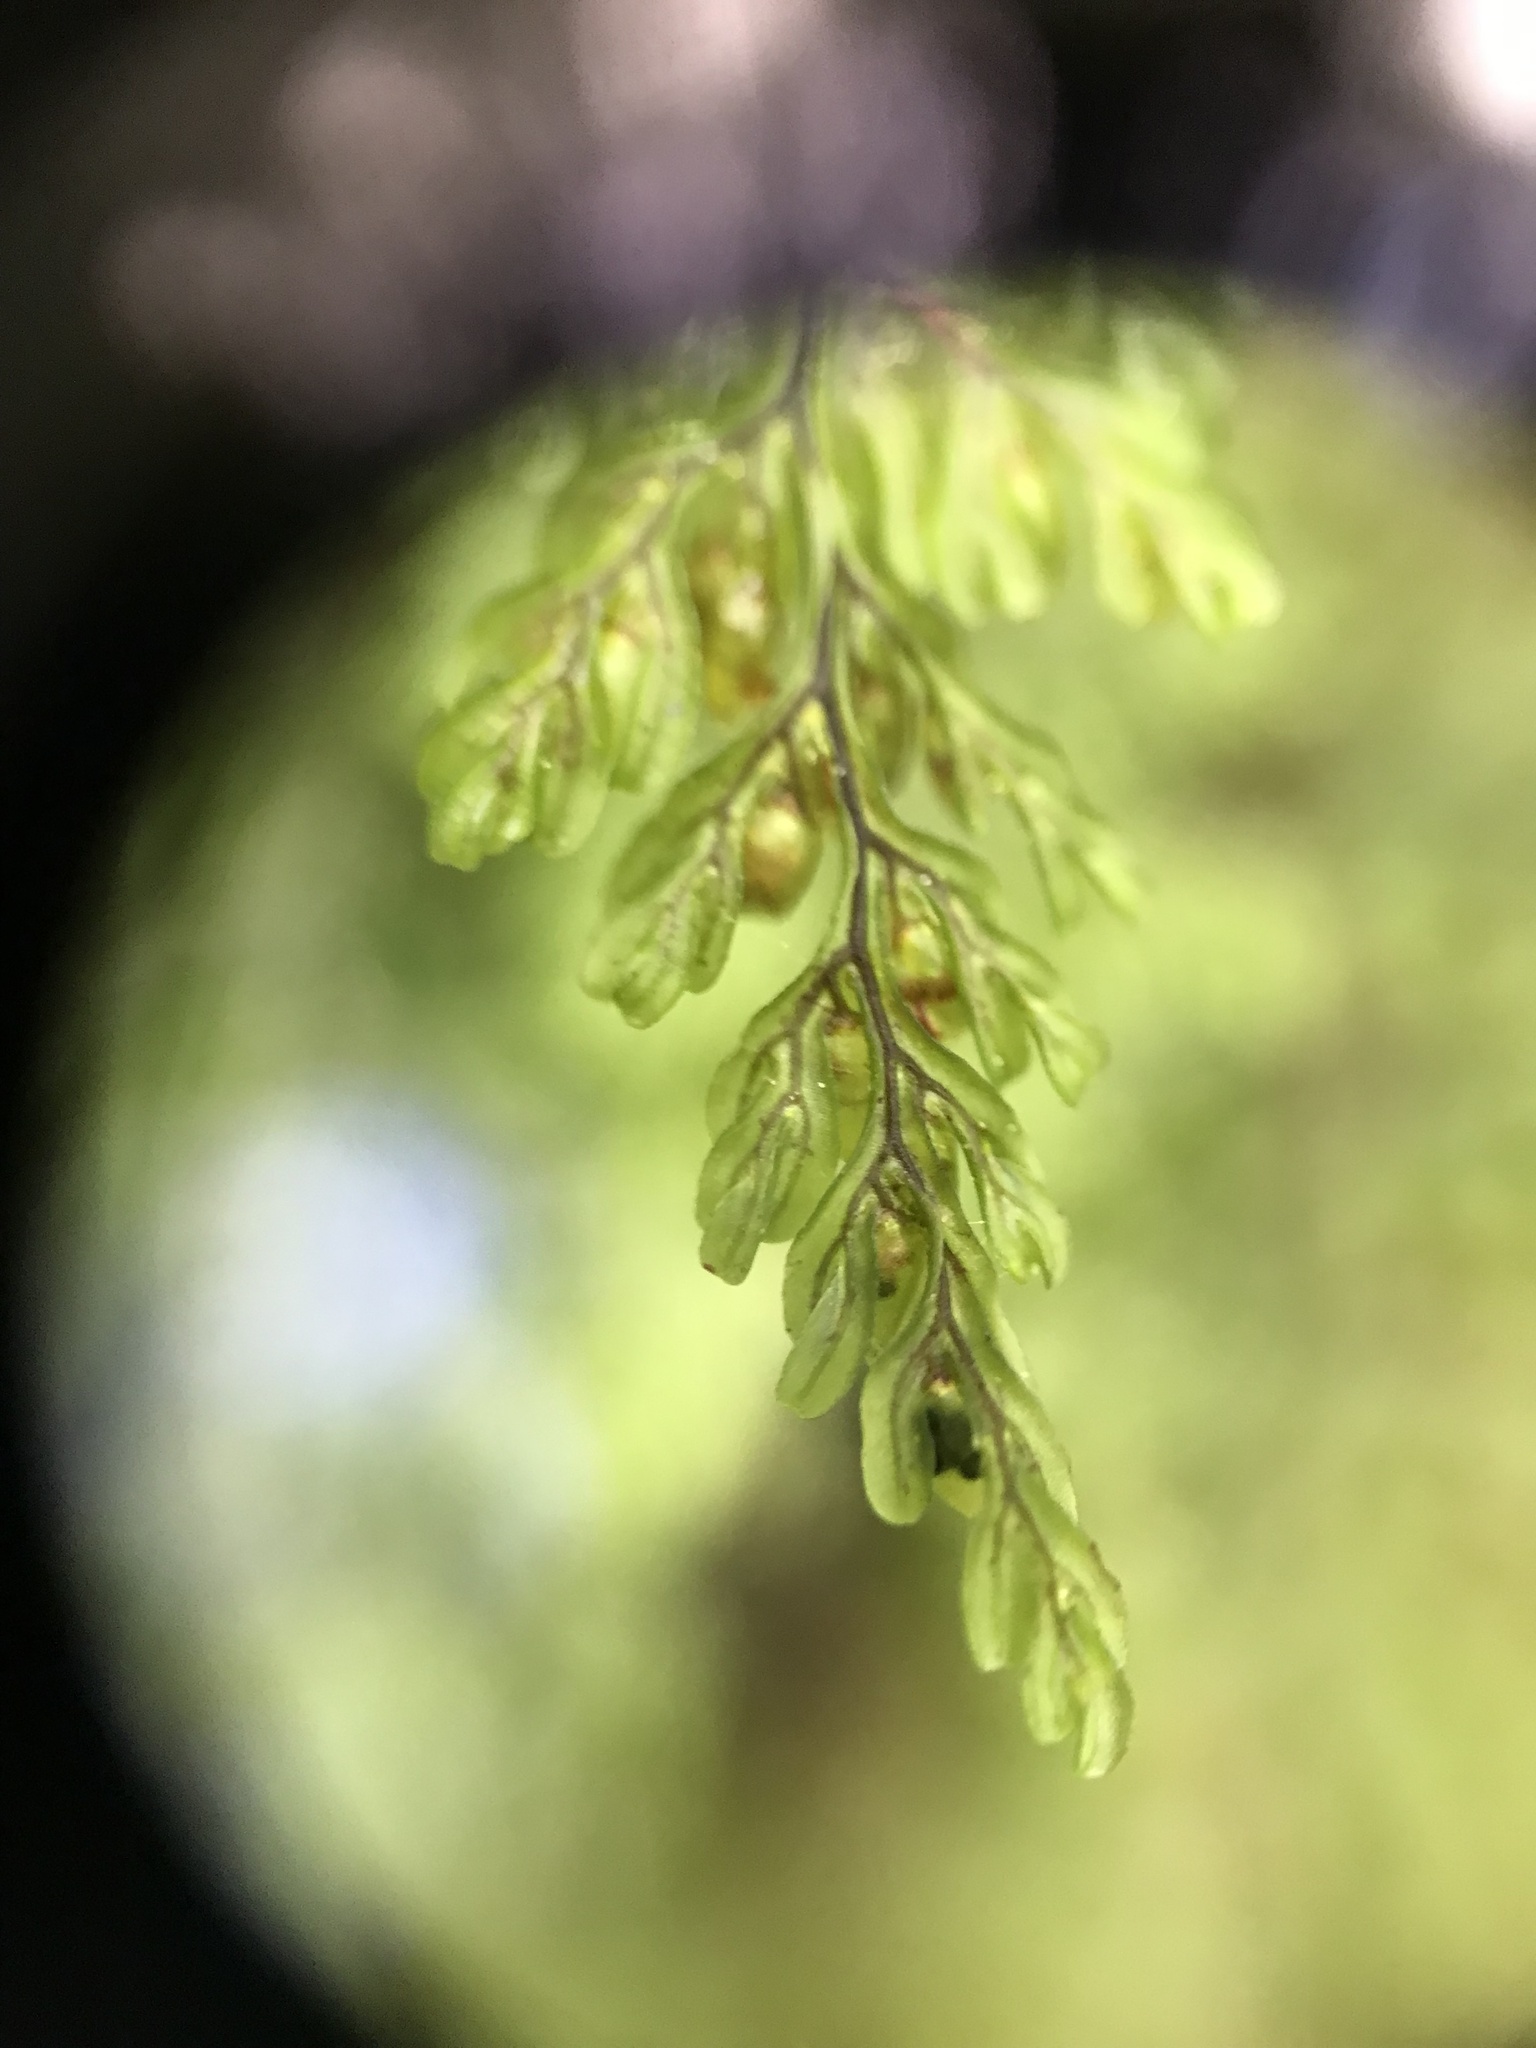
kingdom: Plantae
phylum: Tracheophyta
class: Polypodiopsida
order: Hymenophyllales
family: Hymenophyllaceae
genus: Hymenophyllum
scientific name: Hymenophyllum villosum
